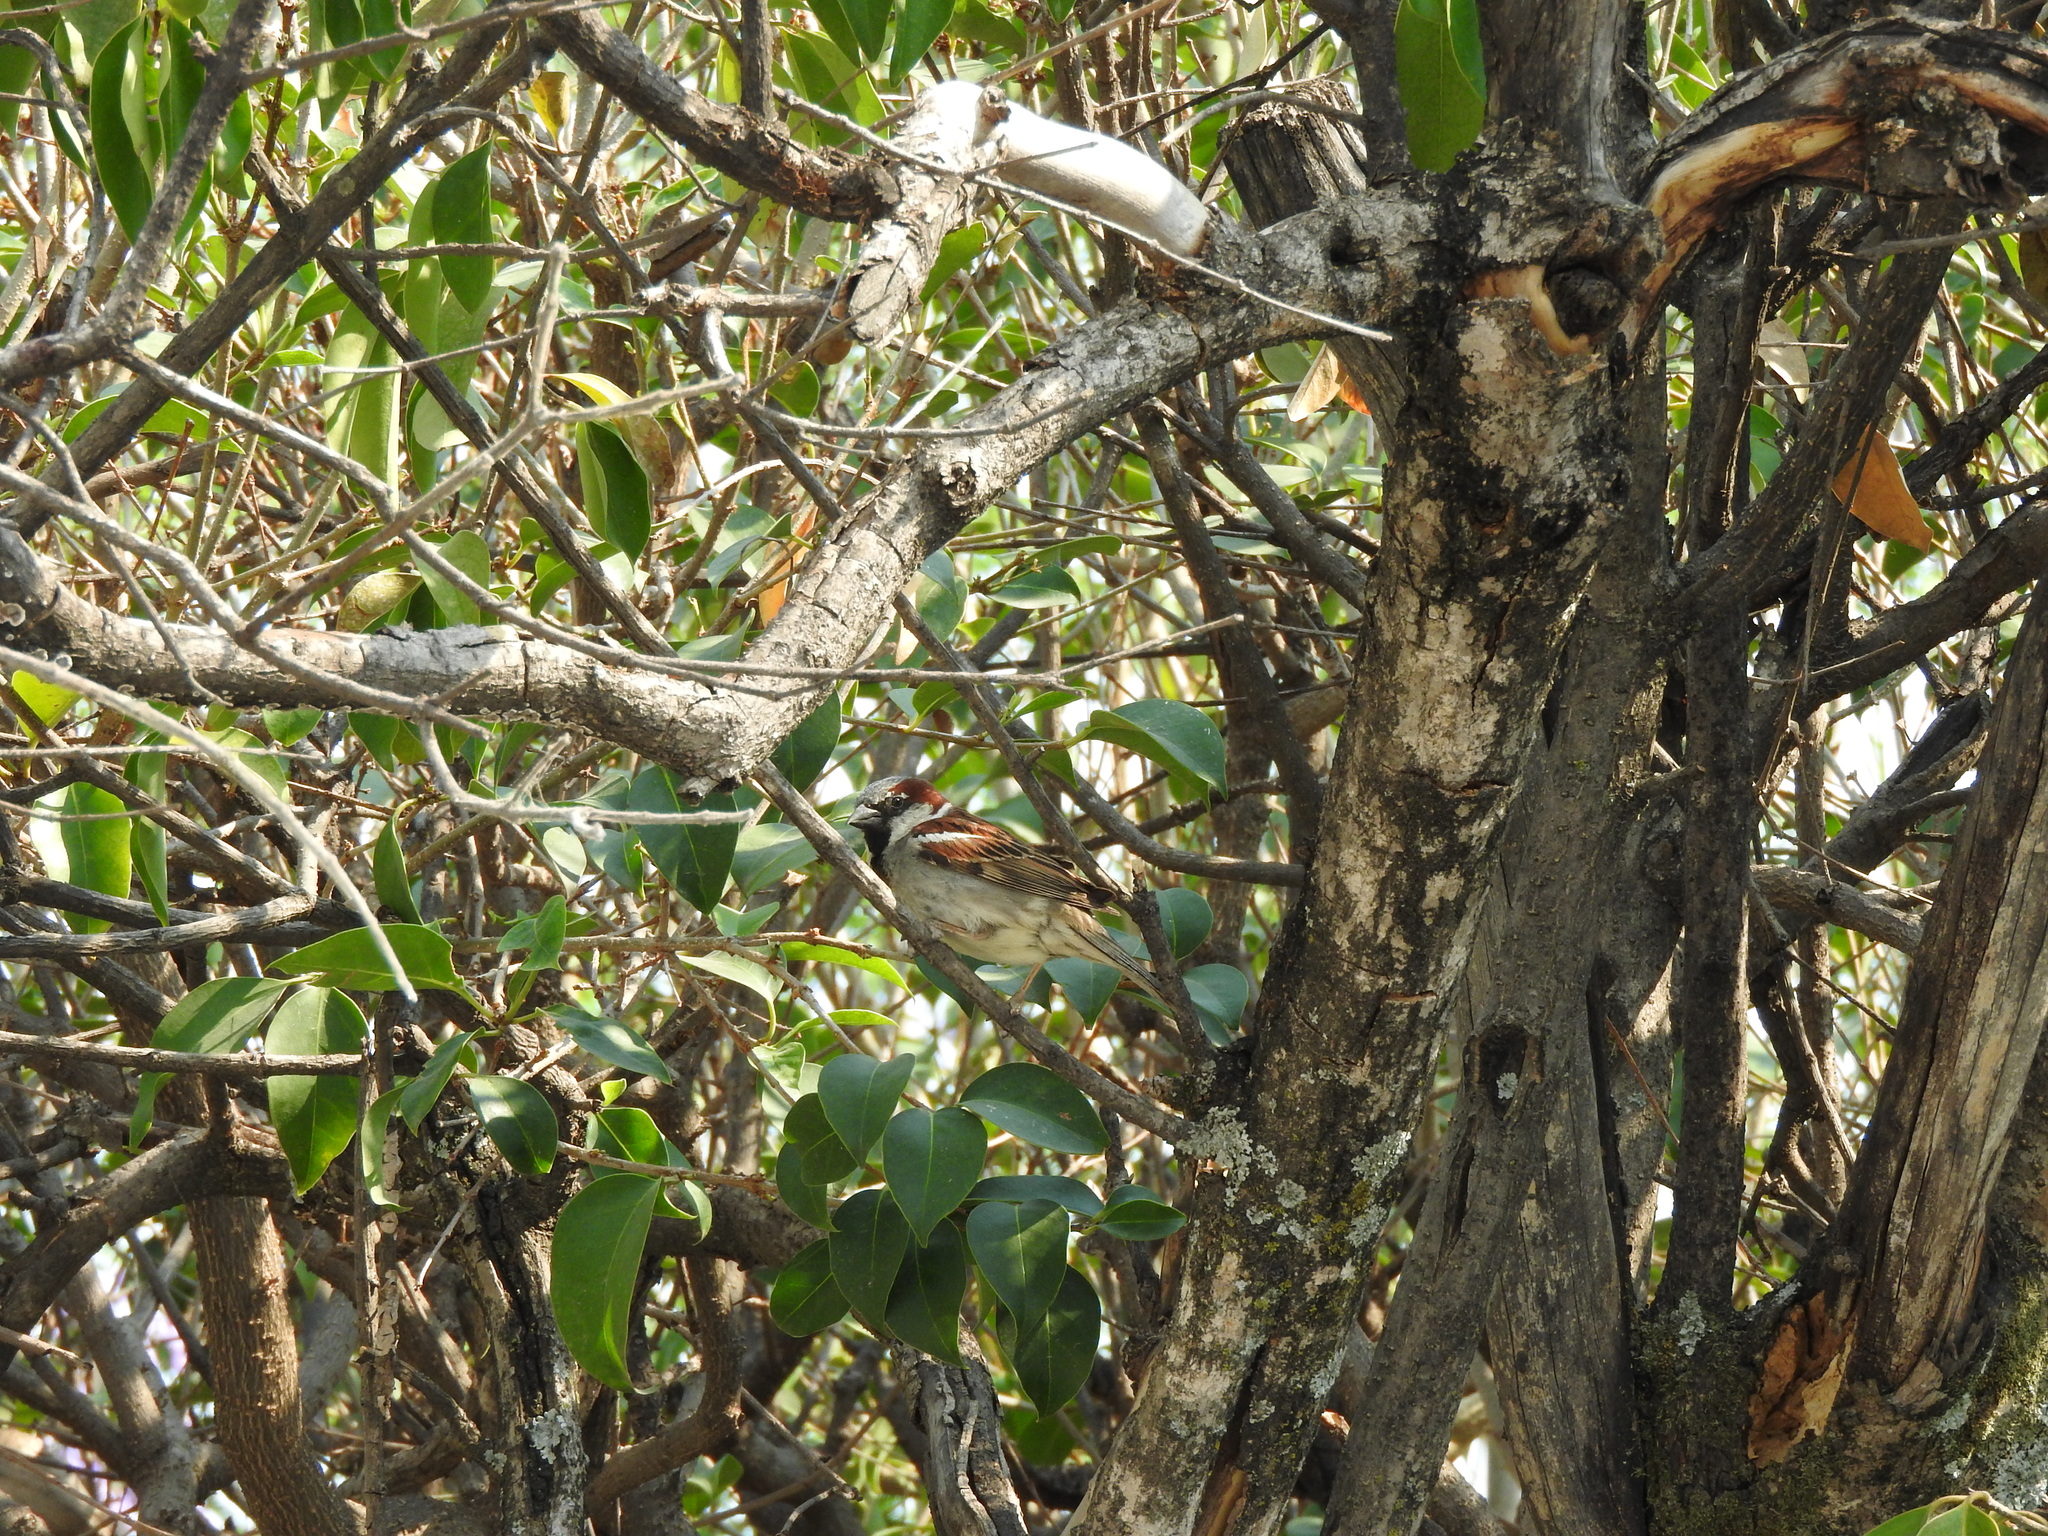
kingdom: Animalia
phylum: Chordata
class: Aves
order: Passeriformes
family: Passeridae
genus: Passer
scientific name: Passer domesticus
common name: House sparrow
